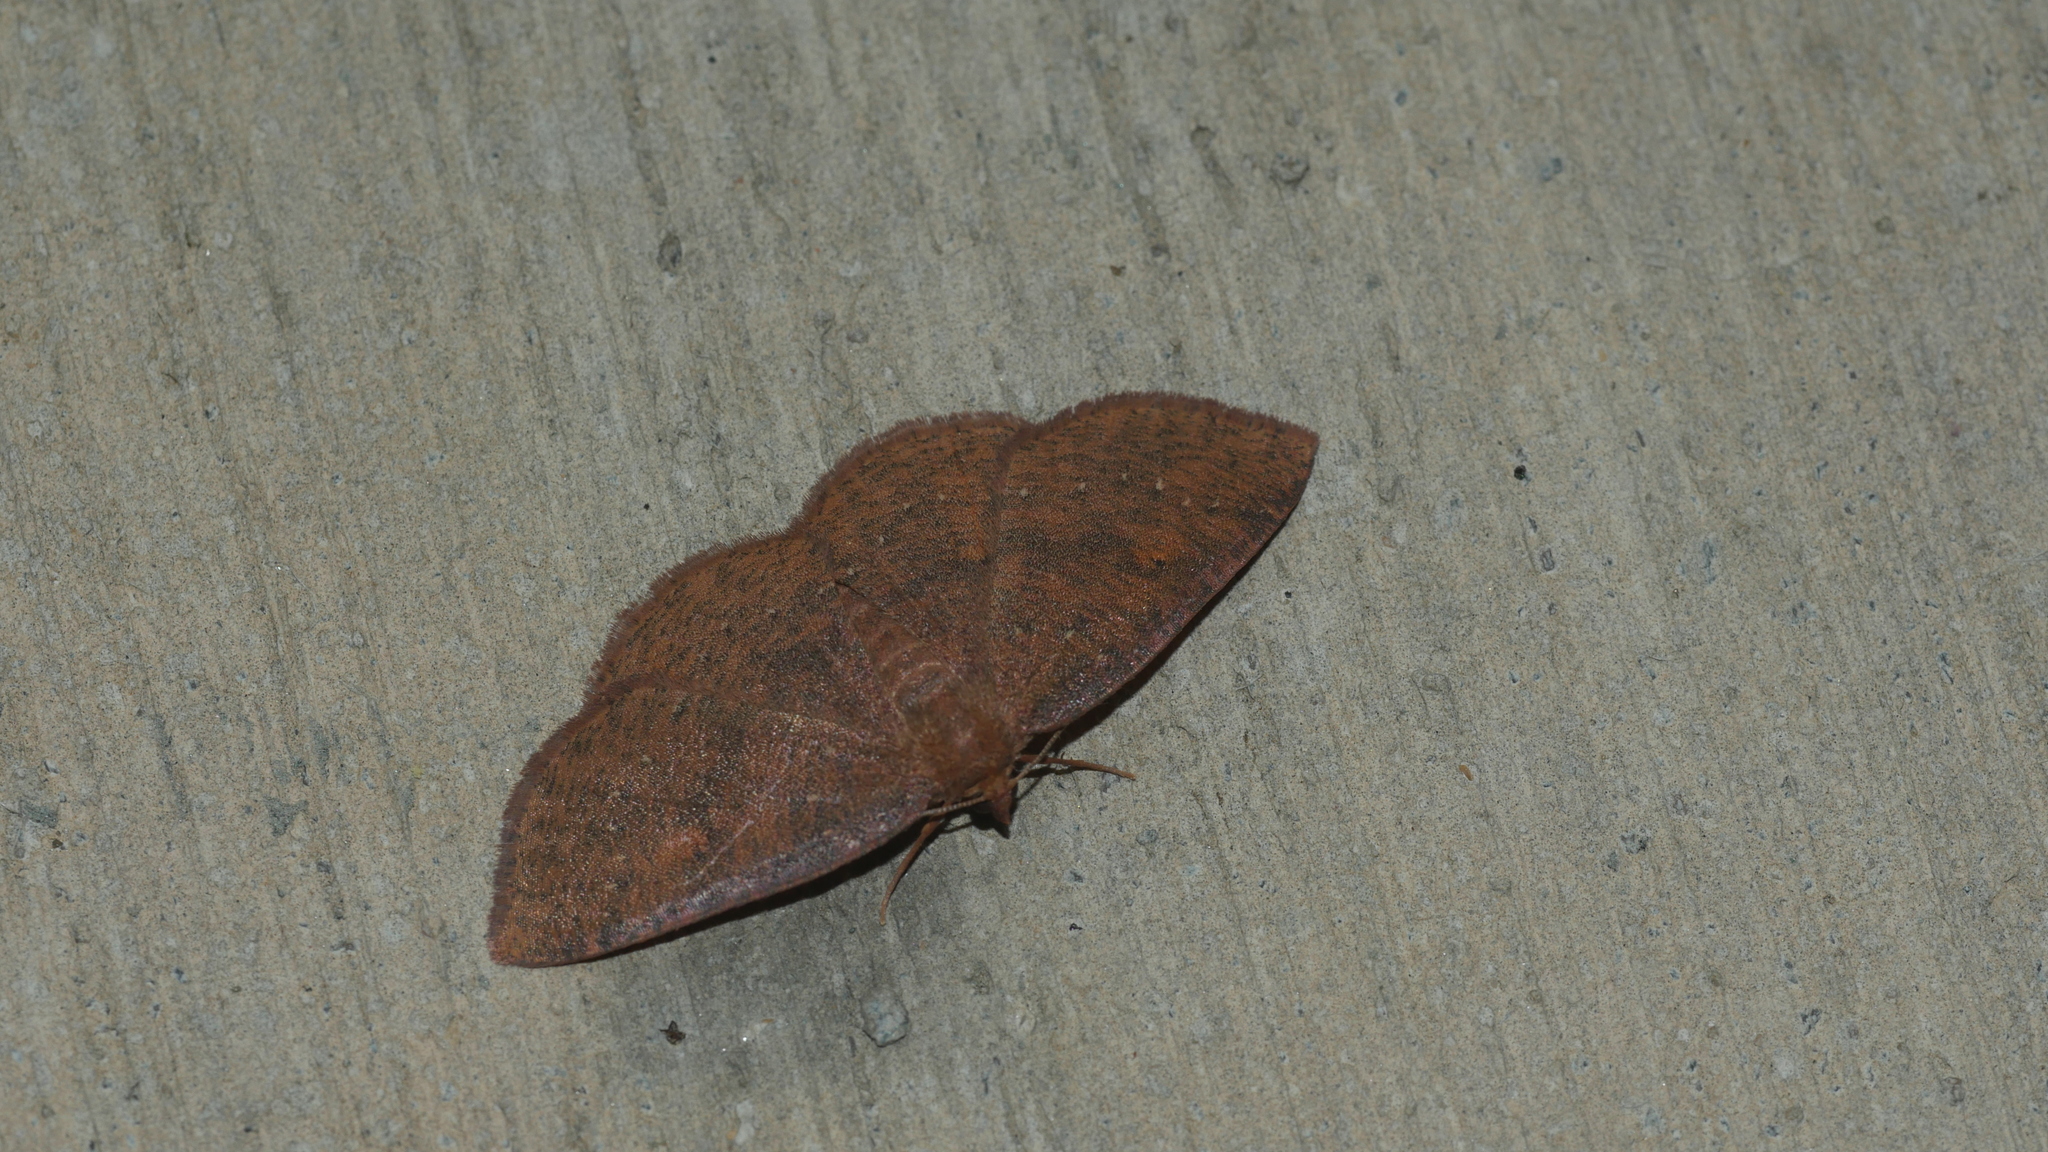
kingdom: Animalia
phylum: Arthropoda
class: Insecta
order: Lepidoptera
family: Geometridae
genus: Ilexia
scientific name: Ilexia intractata
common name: Black-dotted ruddy moth
